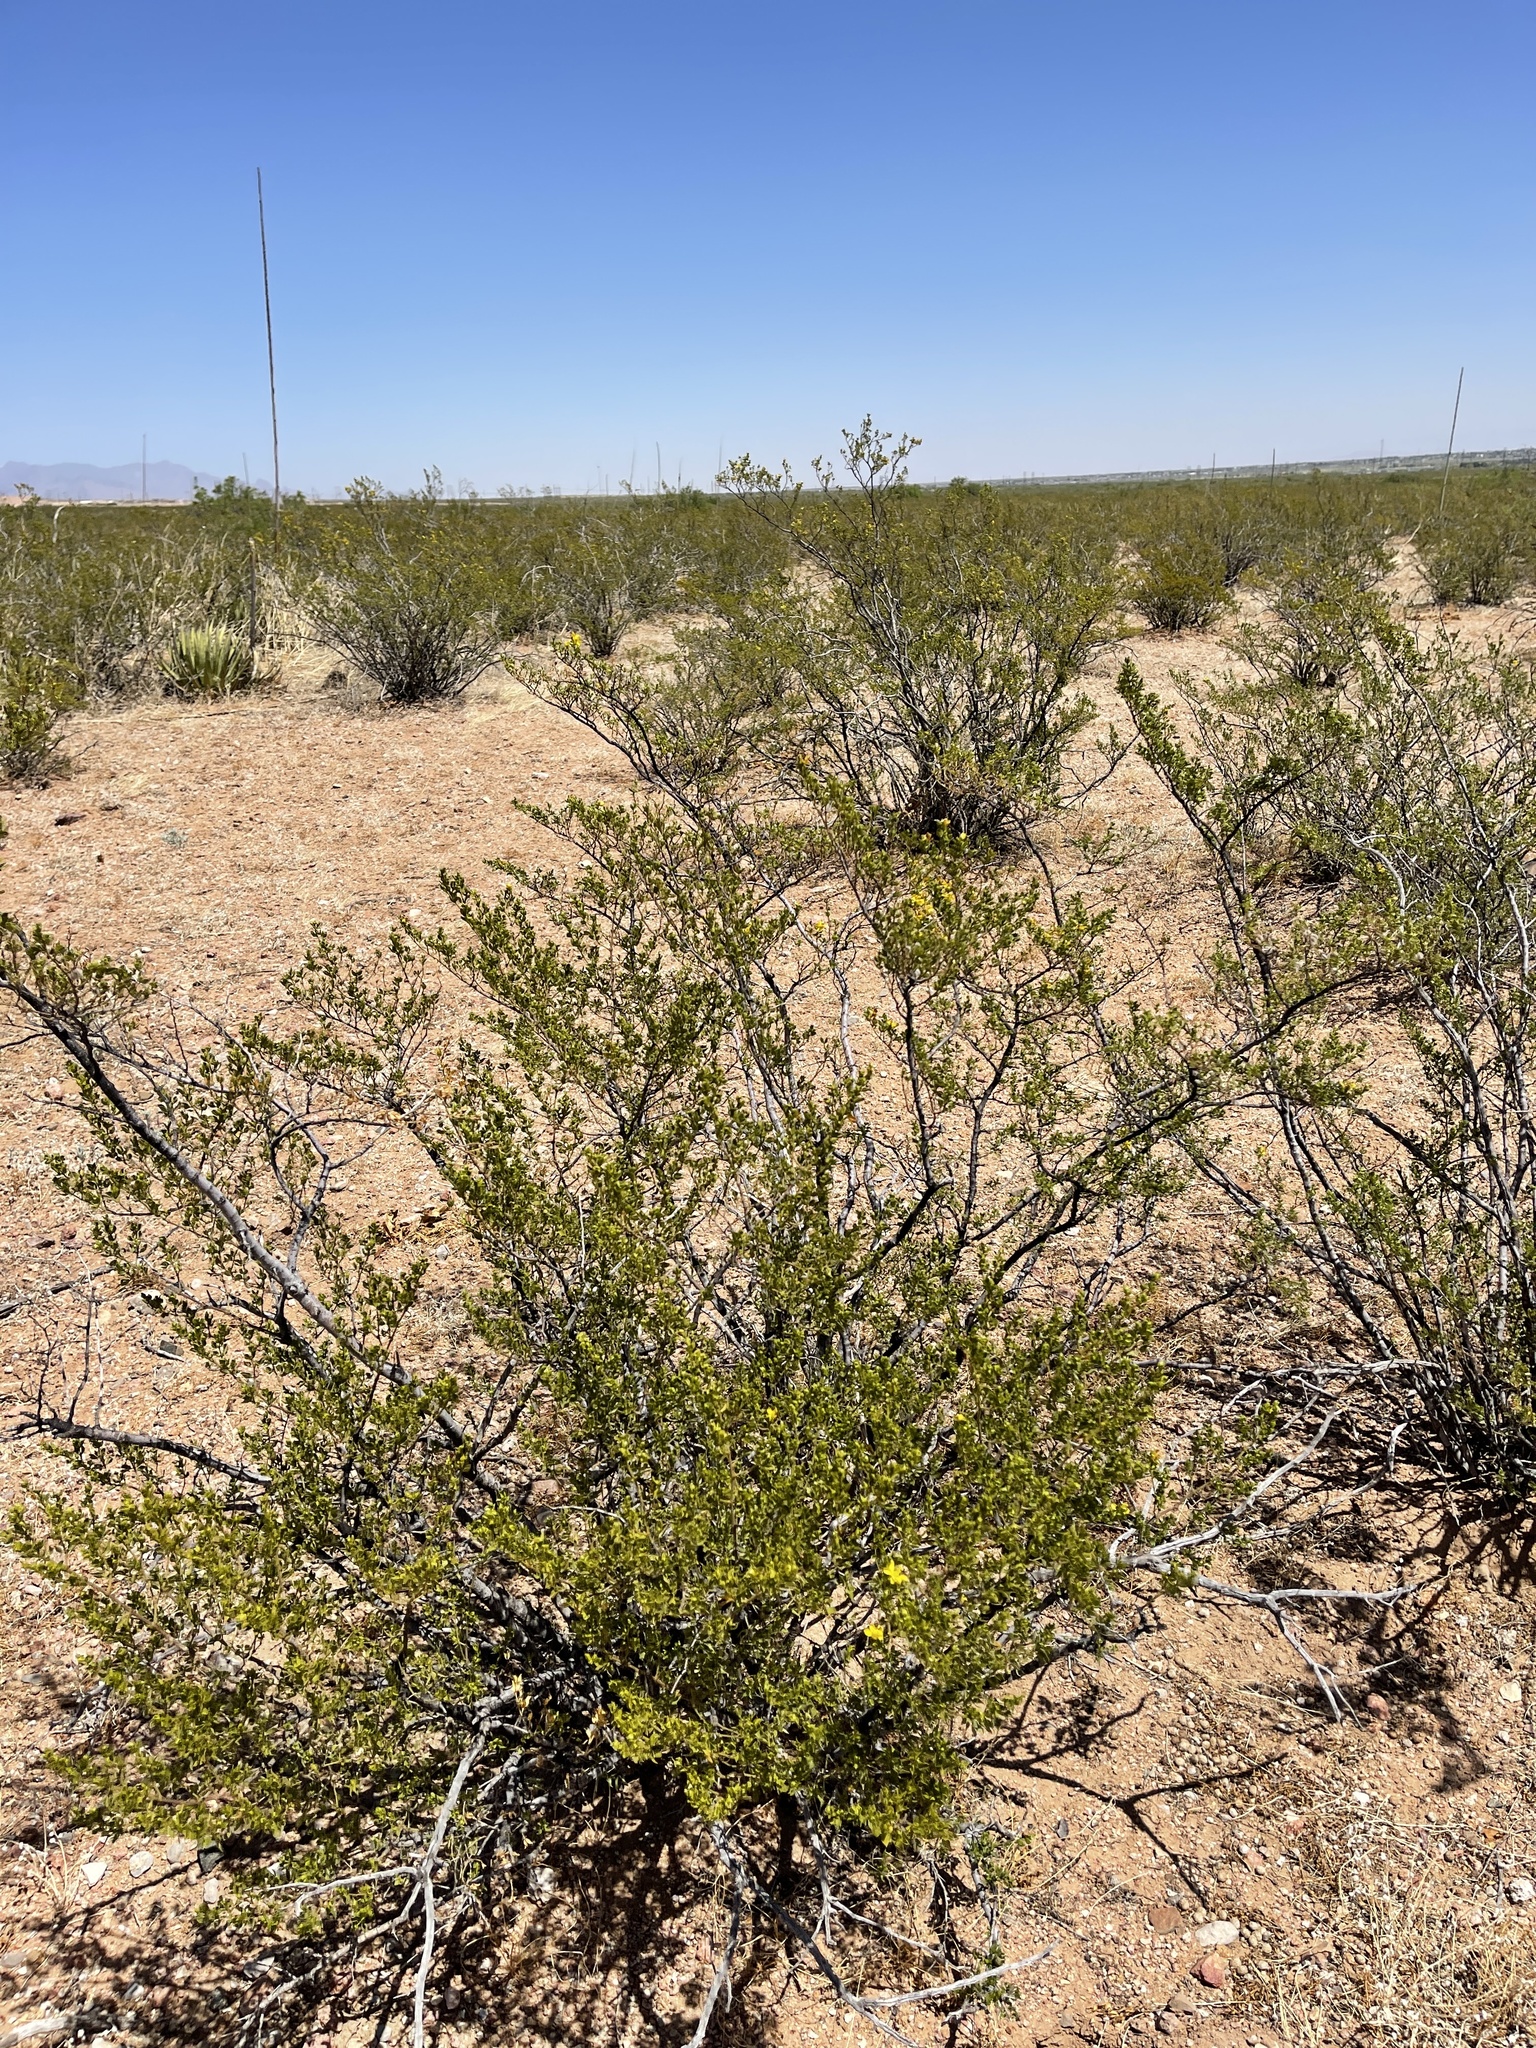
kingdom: Plantae
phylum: Tracheophyta
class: Magnoliopsida
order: Zygophyllales
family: Zygophyllaceae
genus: Larrea
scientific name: Larrea tridentata
